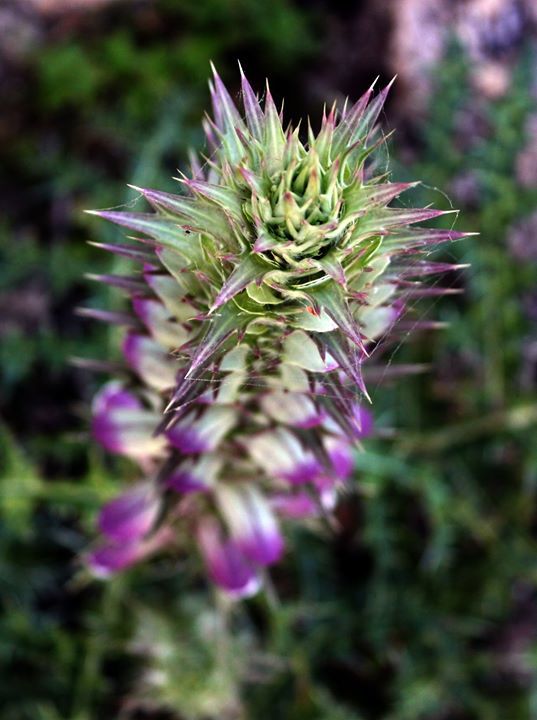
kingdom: Plantae
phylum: Tracheophyta
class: Magnoliopsida
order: Lamiales
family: Acanthaceae
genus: Acanthus
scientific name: Acanthus spinosus
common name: Spiny bear's-breech
